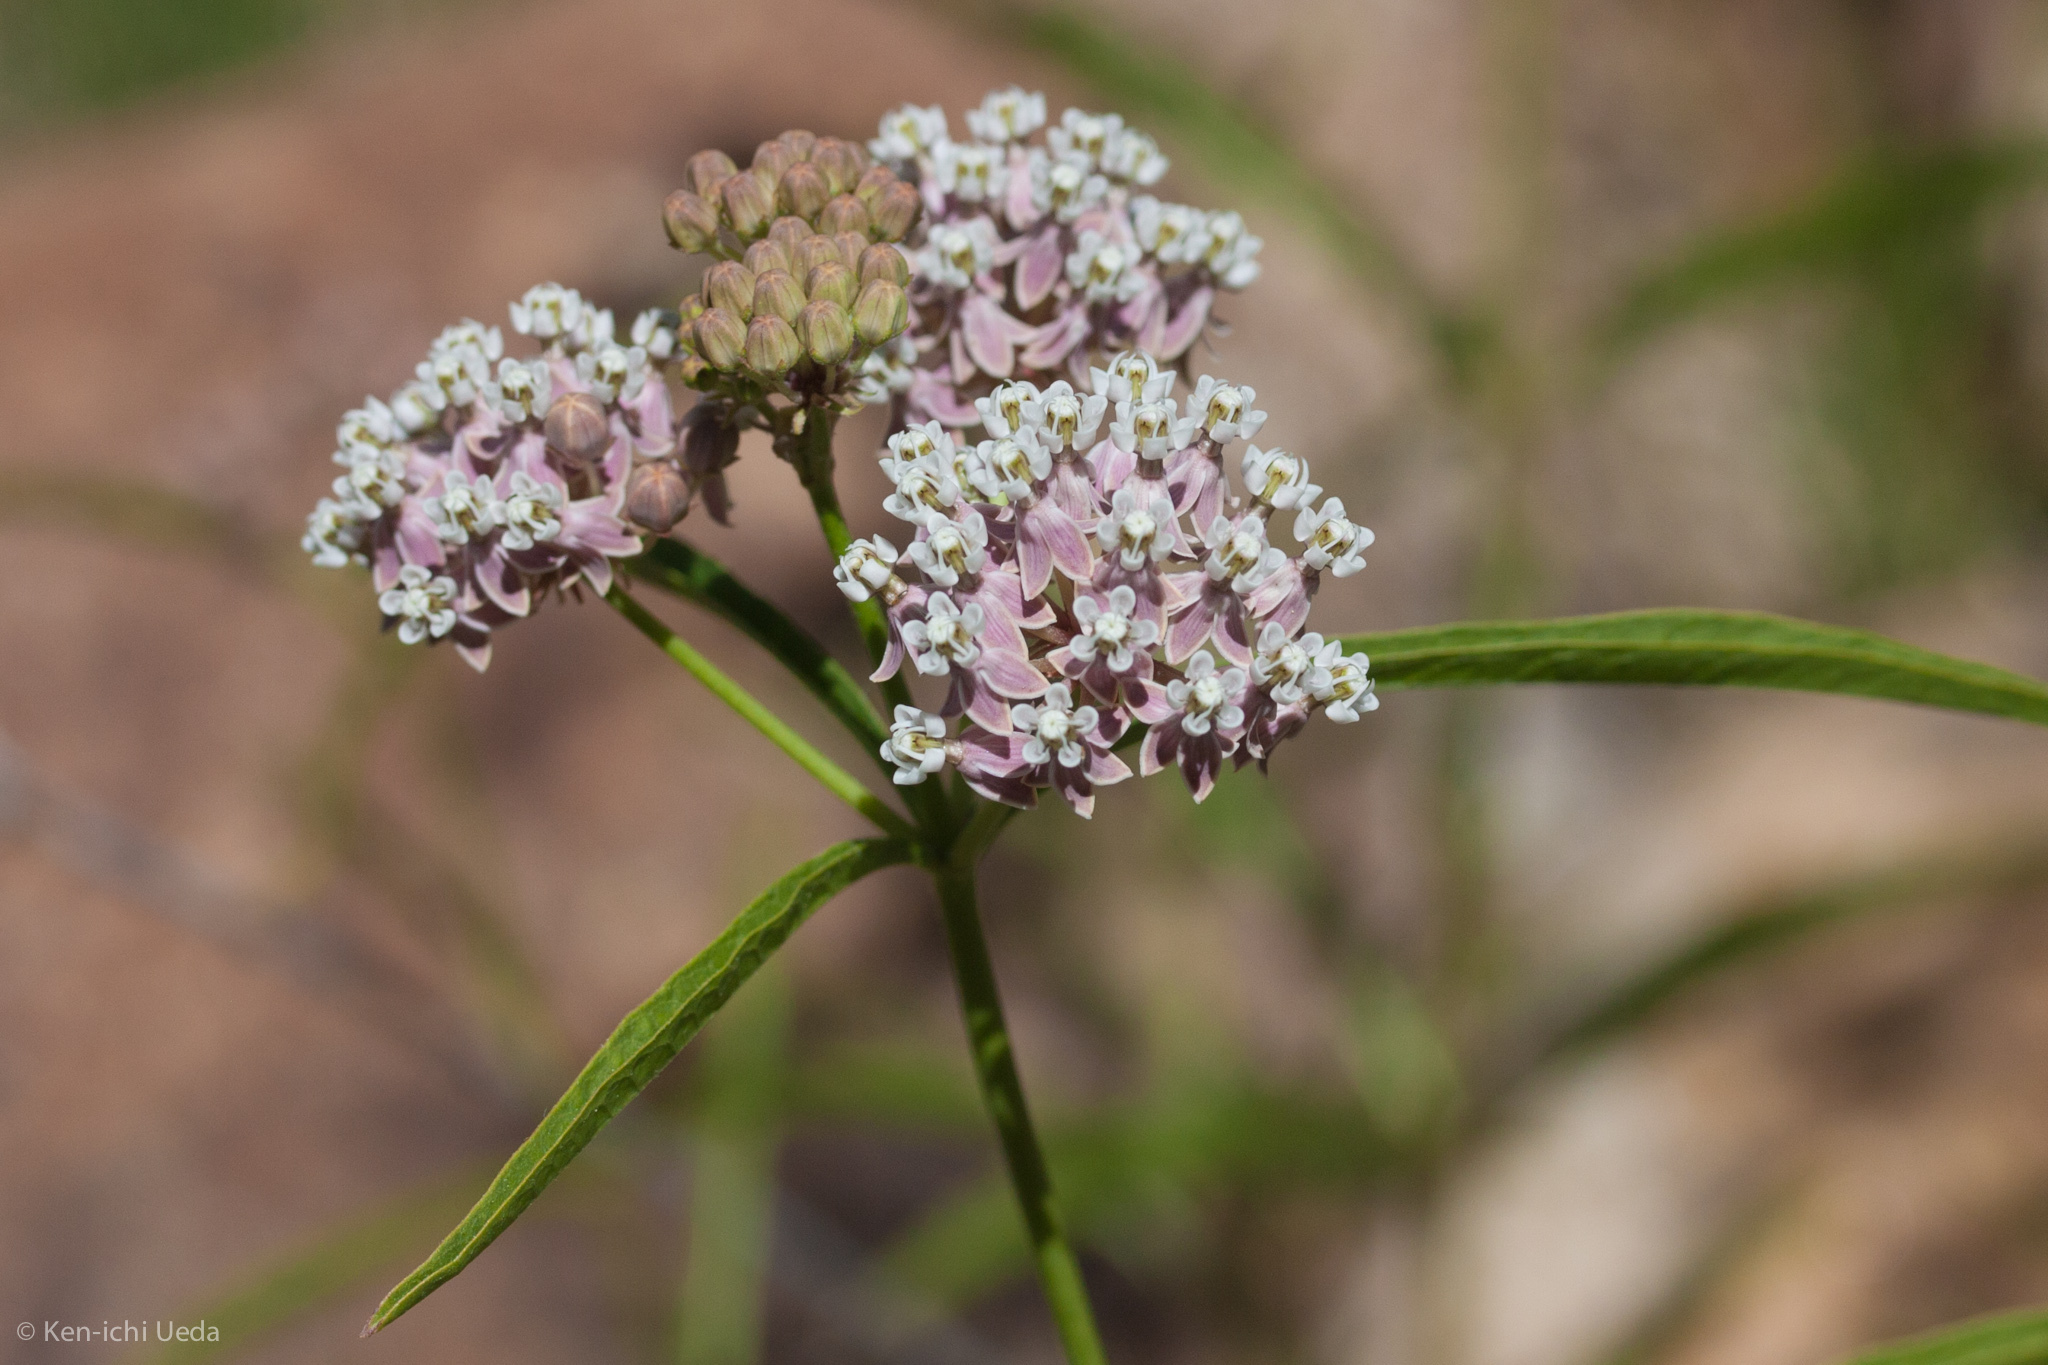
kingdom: Plantae
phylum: Tracheophyta
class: Magnoliopsida
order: Gentianales
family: Apocynaceae
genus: Asclepias
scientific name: Asclepias fascicularis
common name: Mexican milkweed
